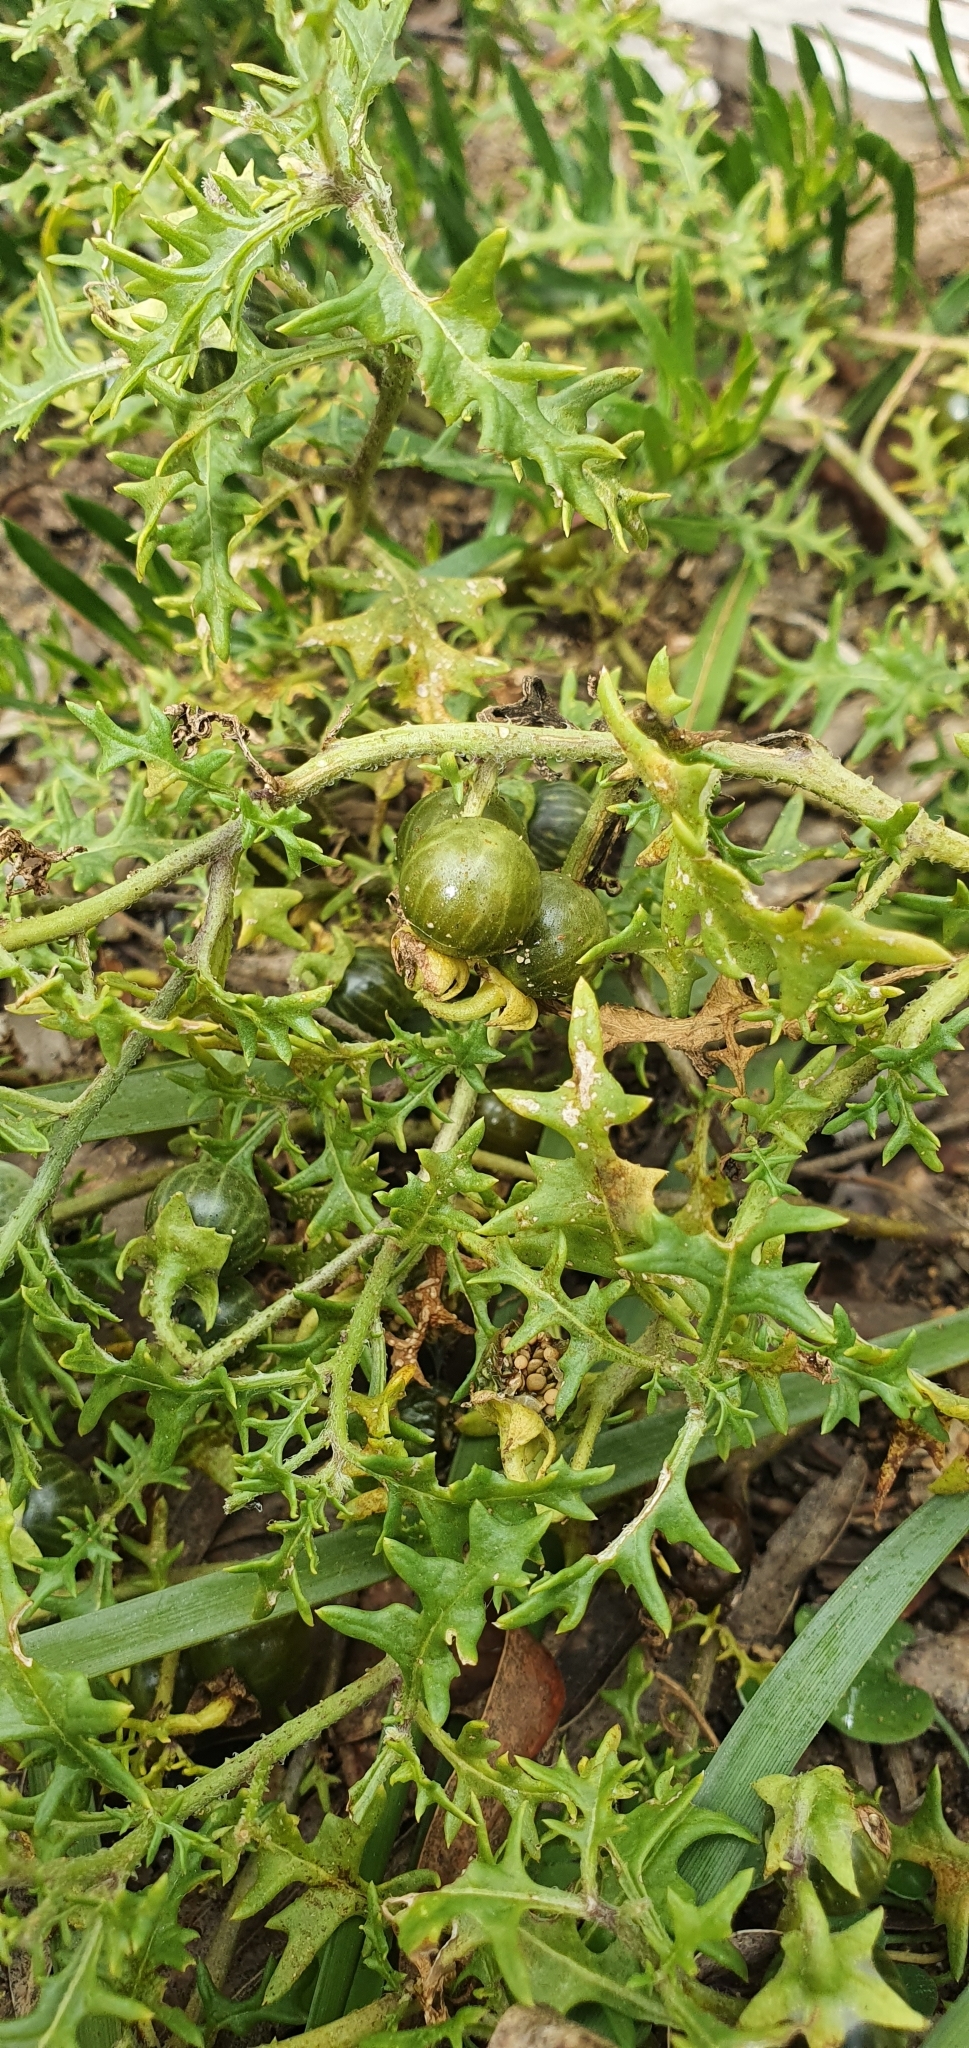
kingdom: Plantae
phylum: Tracheophyta
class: Magnoliopsida
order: Solanales
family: Solanaceae
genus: Solanum
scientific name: Solanum triflorum
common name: Small nightshade
